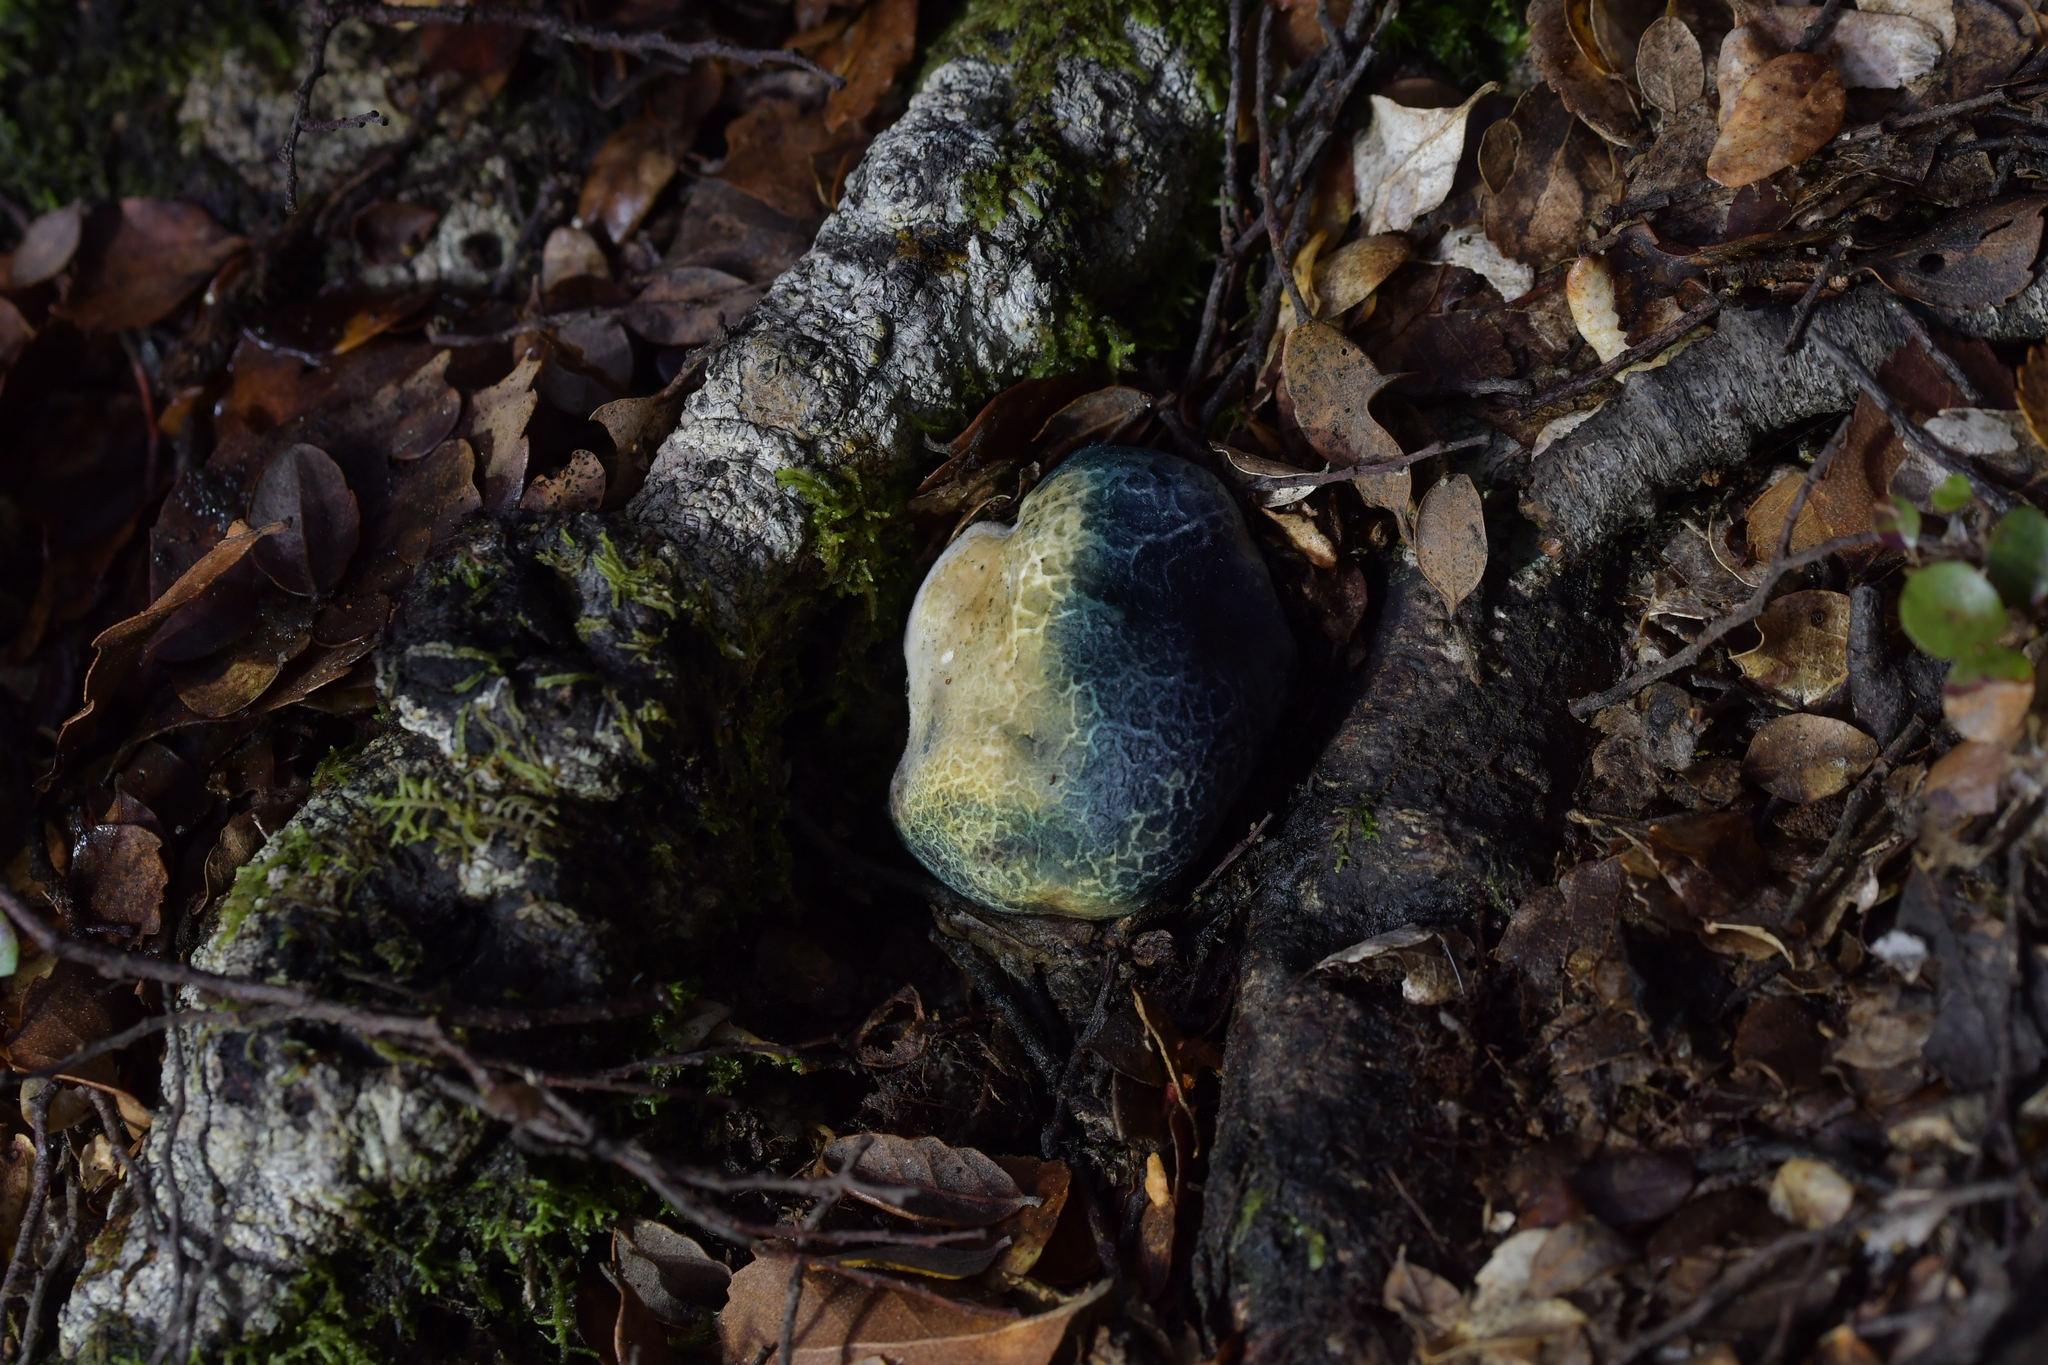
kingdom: Fungi
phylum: Basidiomycota
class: Agaricomycetes
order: Boletales
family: Boletaceae
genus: Leccinum
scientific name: Leccinum pachyderme
